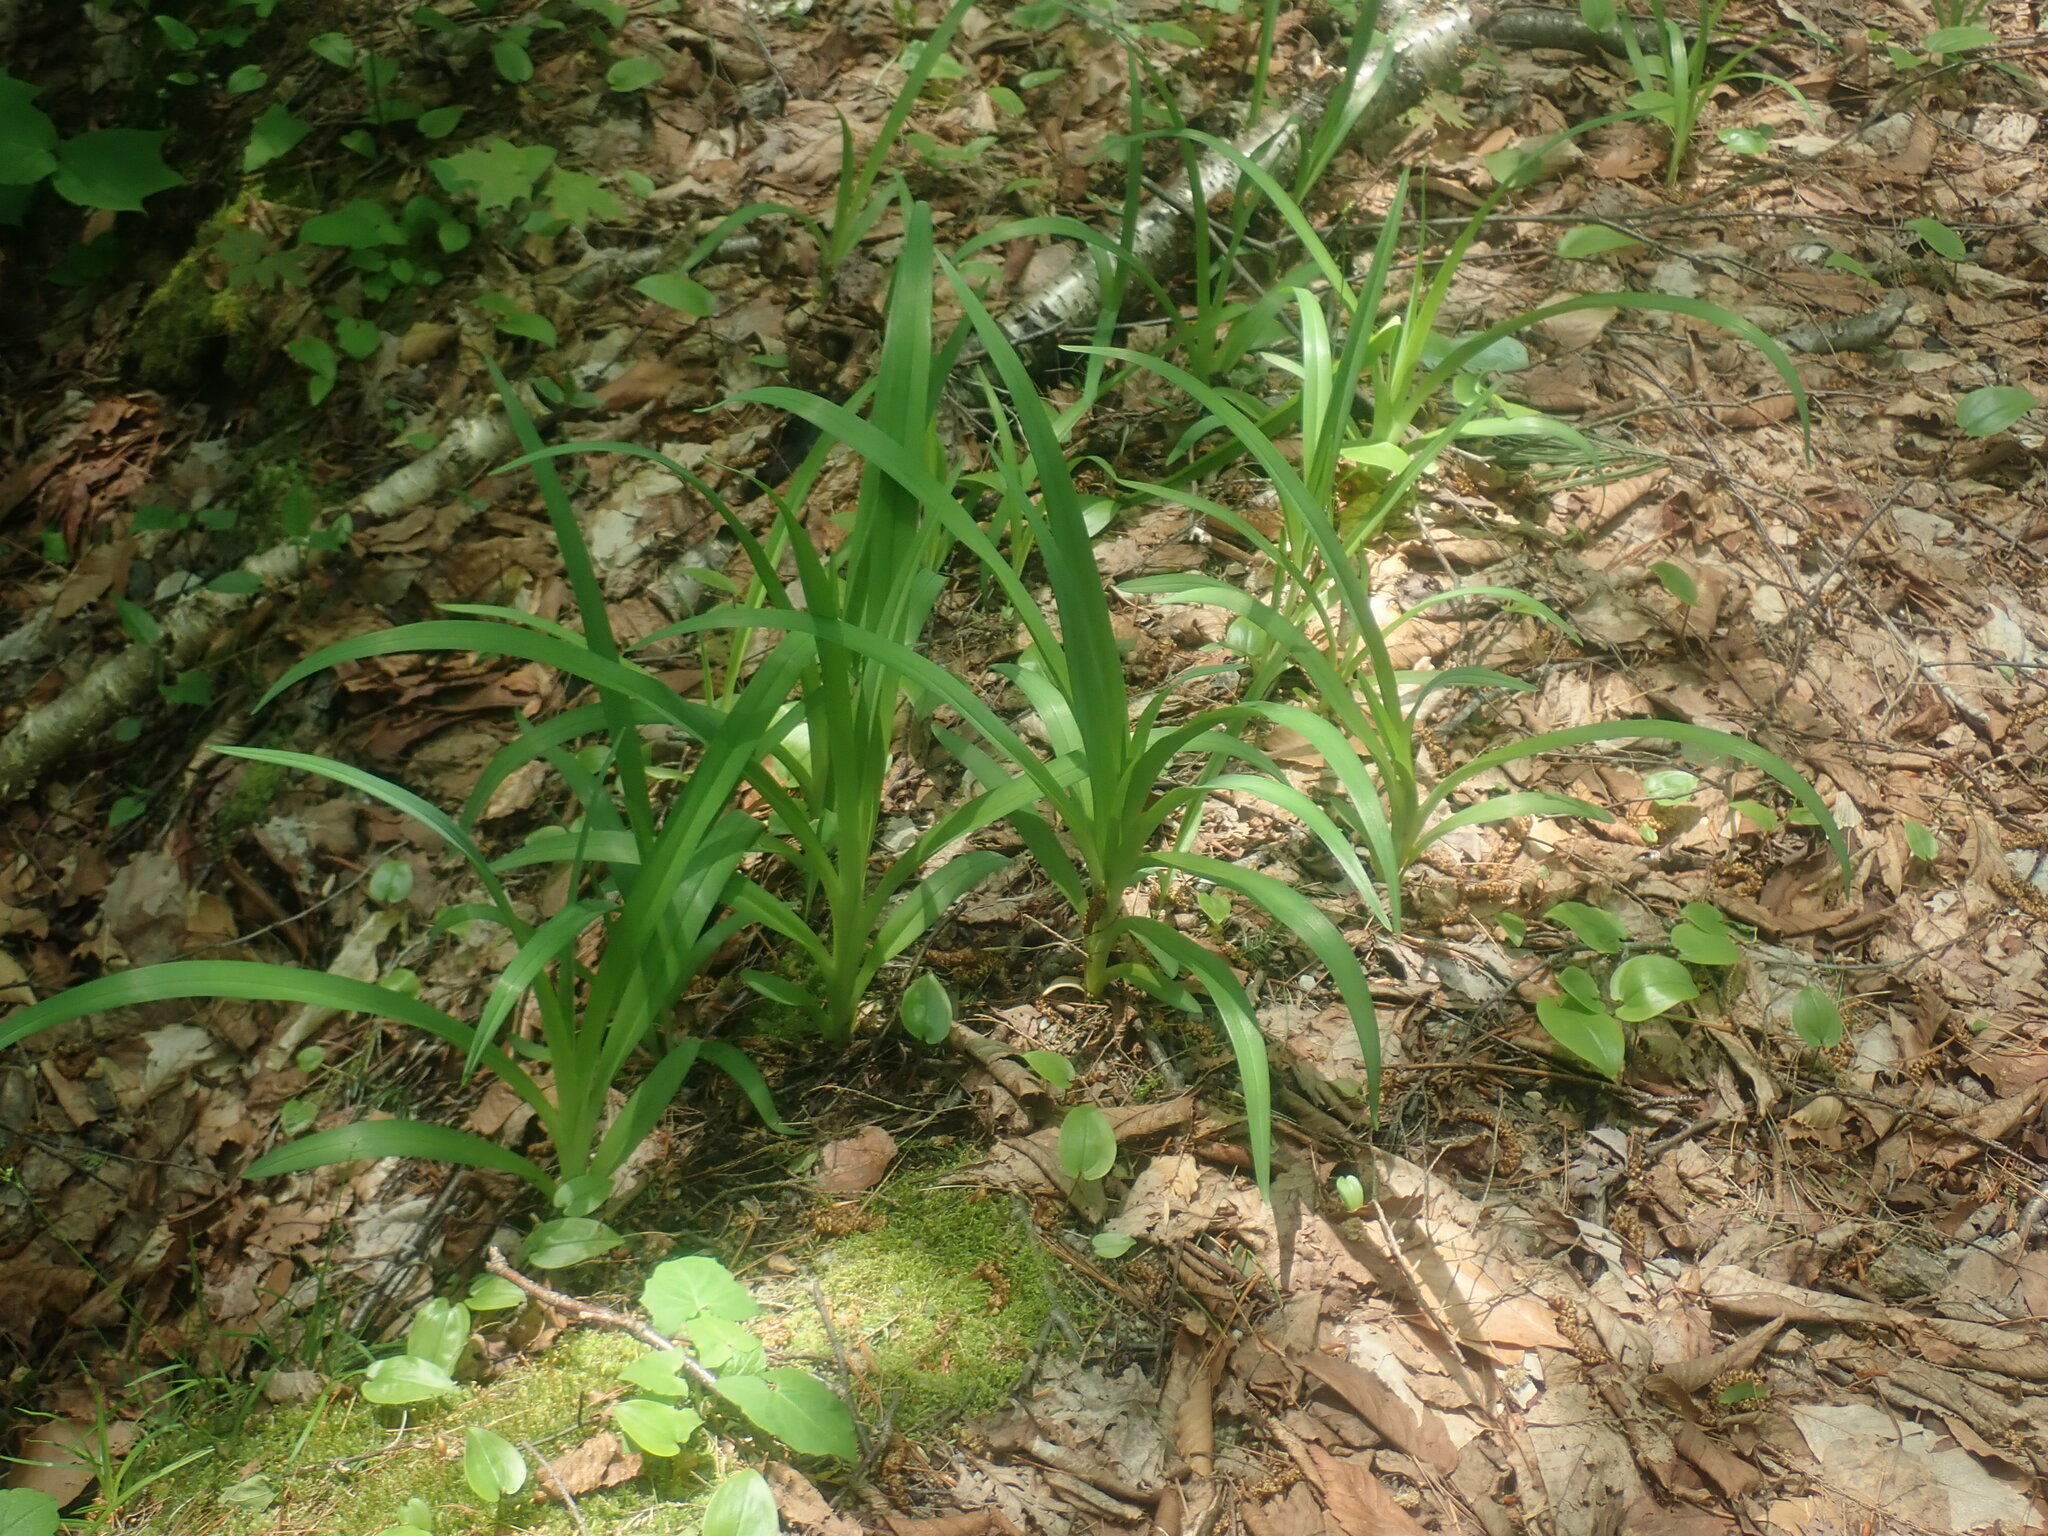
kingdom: Plantae
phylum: Tracheophyta
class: Liliopsida
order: Asparagales
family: Asphodelaceae
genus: Hemerocallis
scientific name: Hemerocallis
